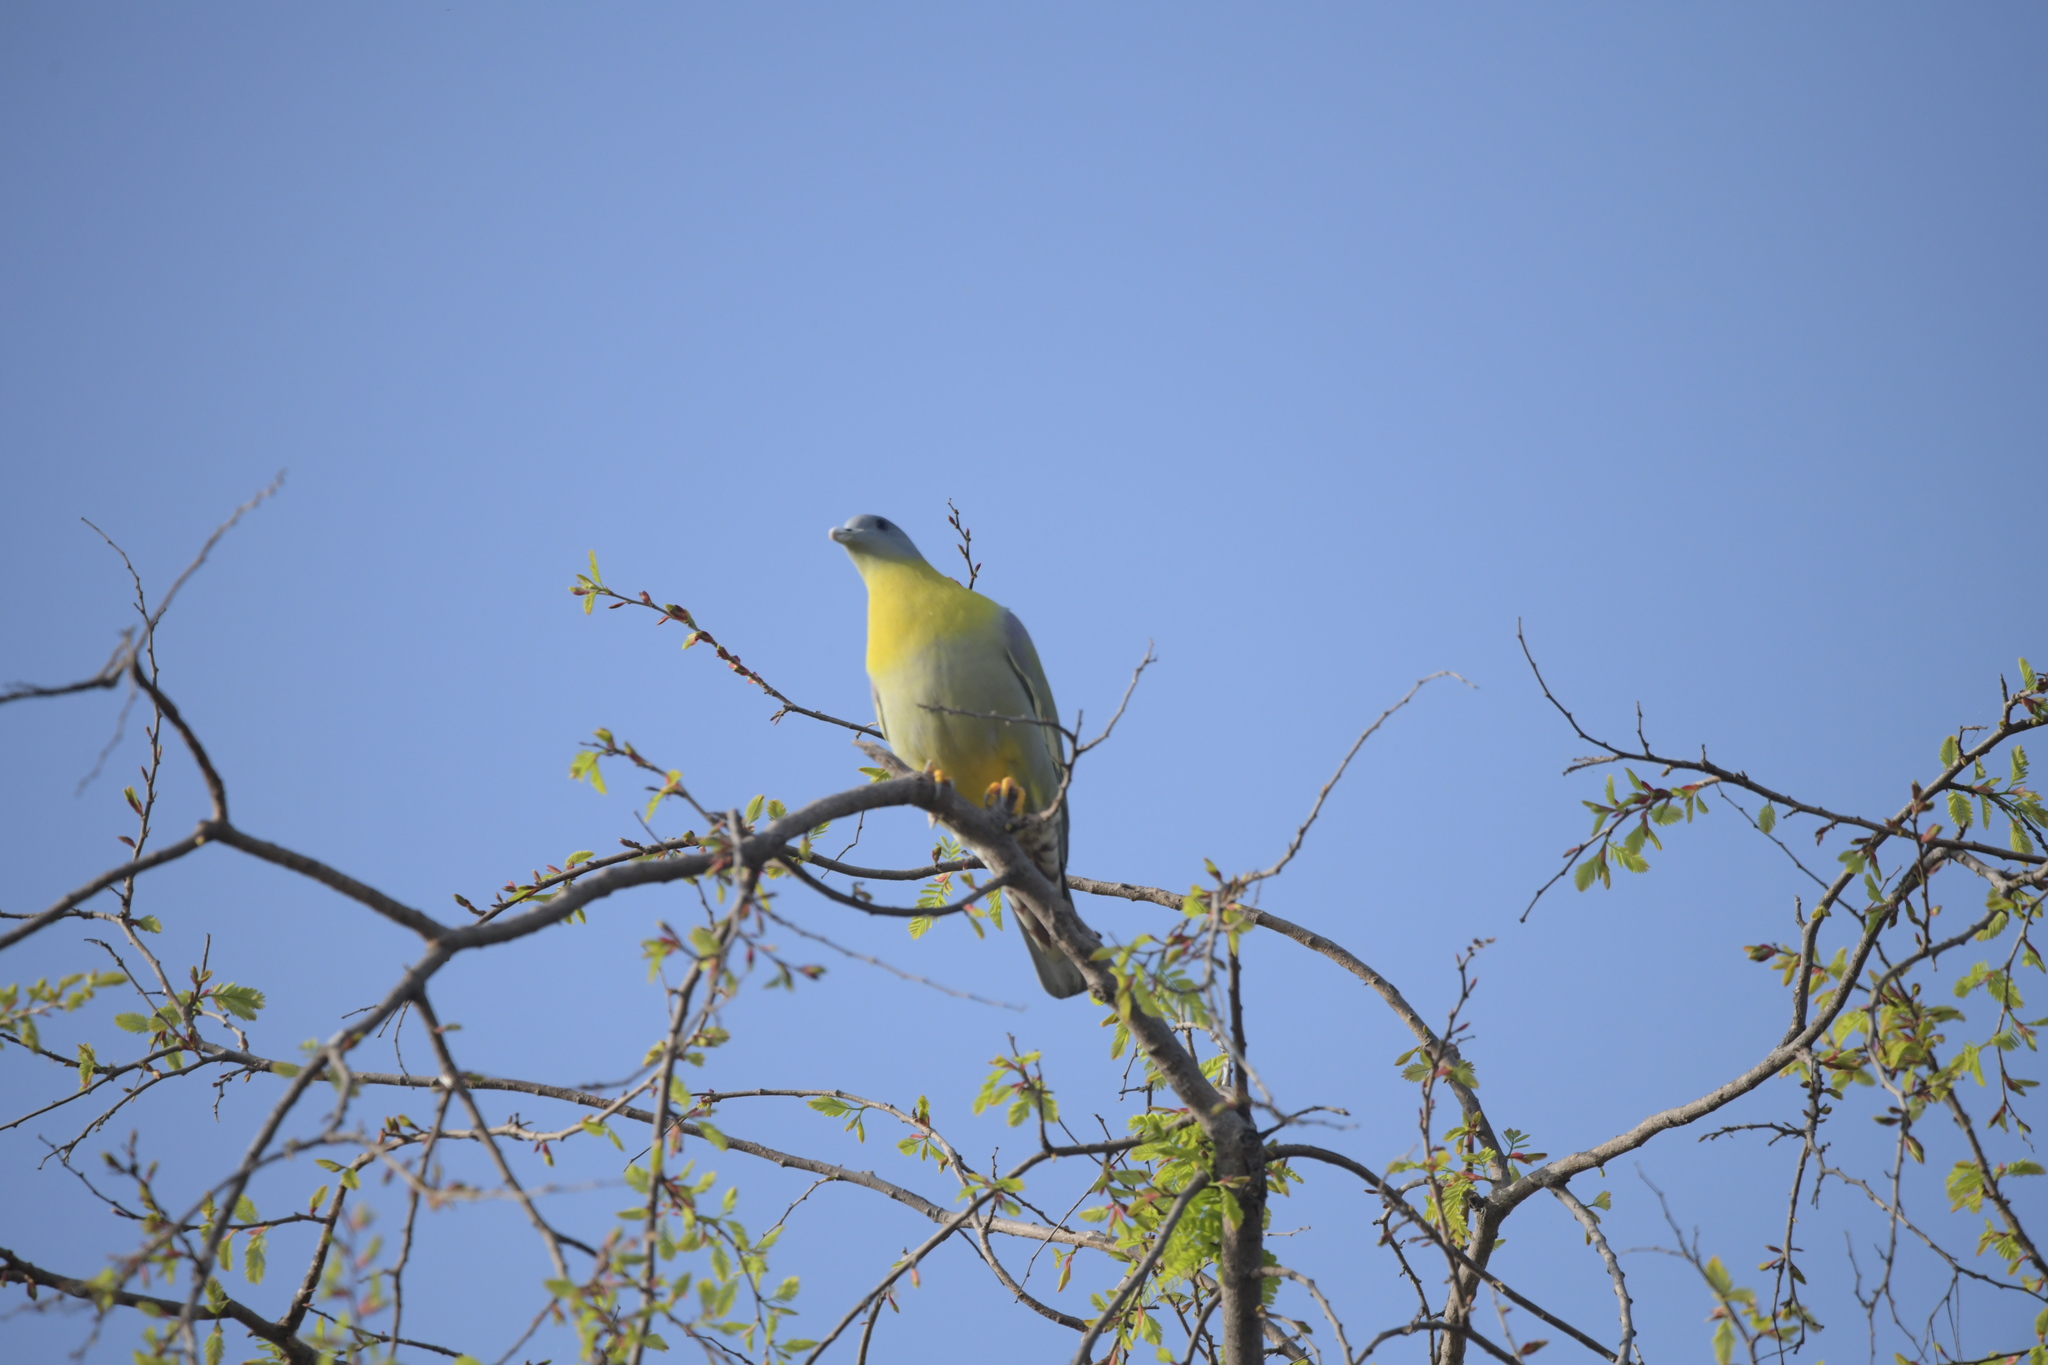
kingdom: Animalia
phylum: Chordata
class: Aves
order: Columbiformes
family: Columbidae
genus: Treron
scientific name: Treron phoenicopterus
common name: Yellow-footed green pigeon
